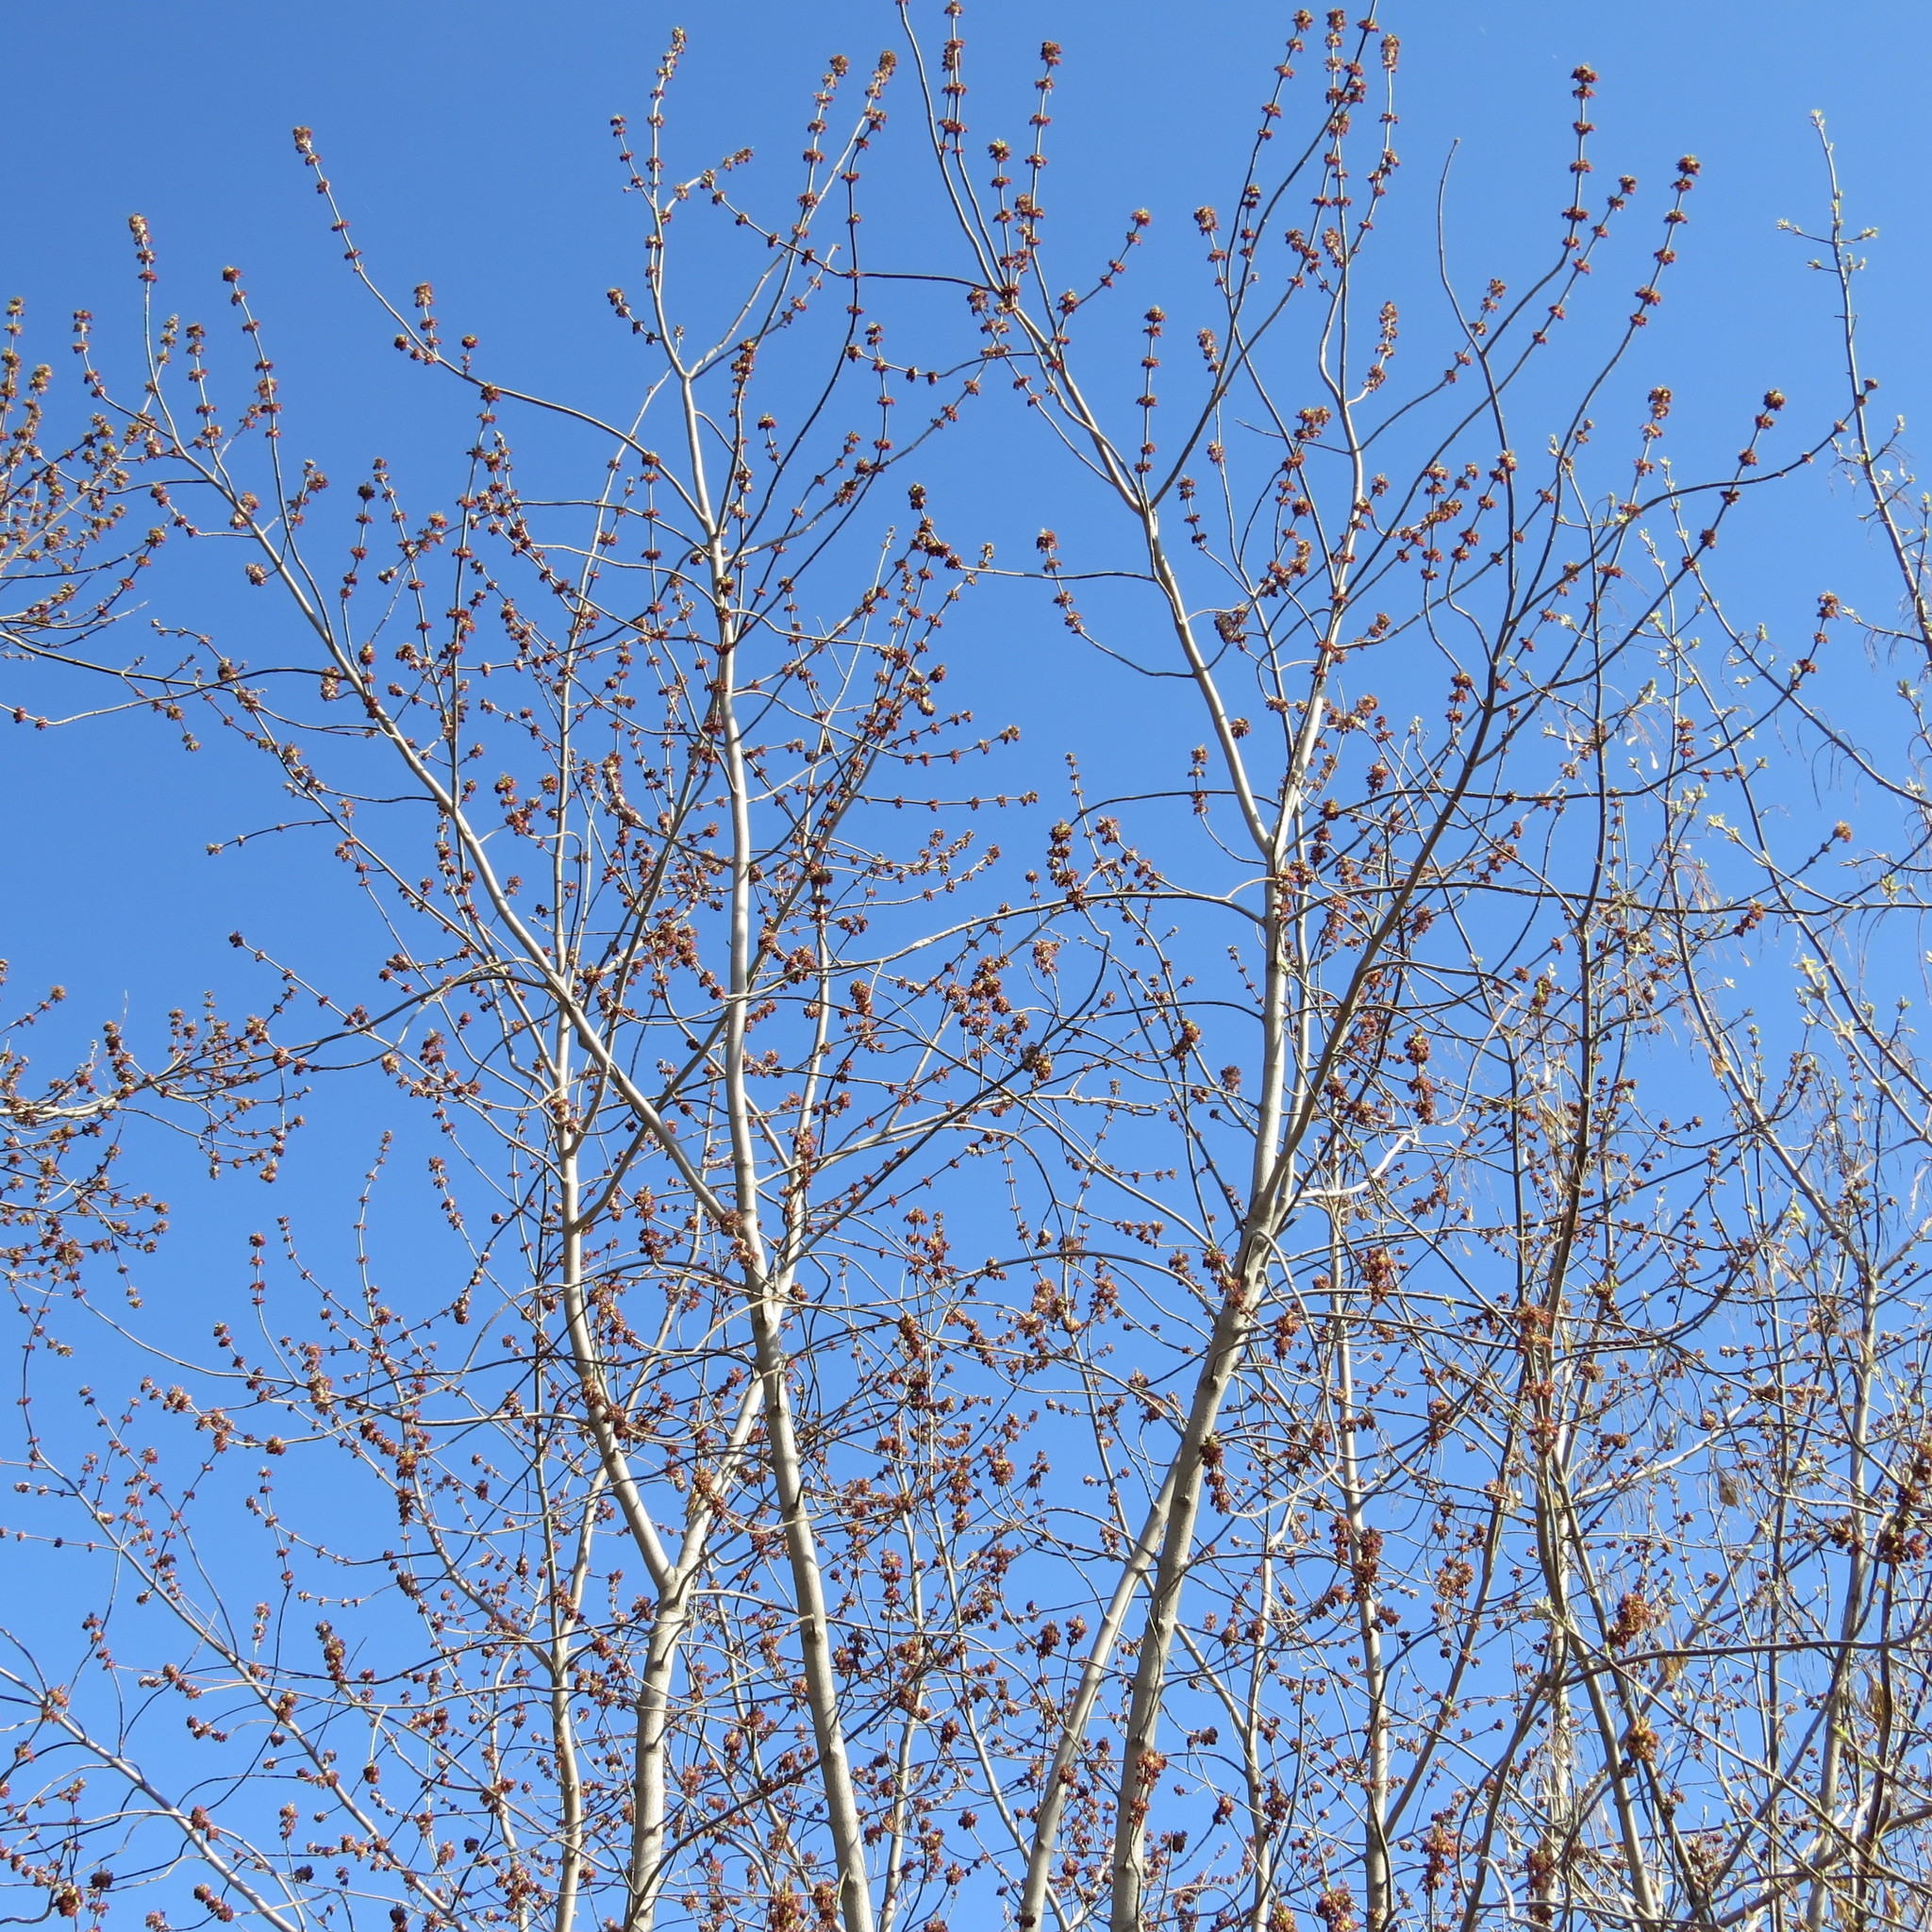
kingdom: Plantae
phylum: Tracheophyta
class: Magnoliopsida
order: Rosales
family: Ulmaceae
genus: Ulmus
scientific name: Ulmus pumila
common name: Siberian elm
